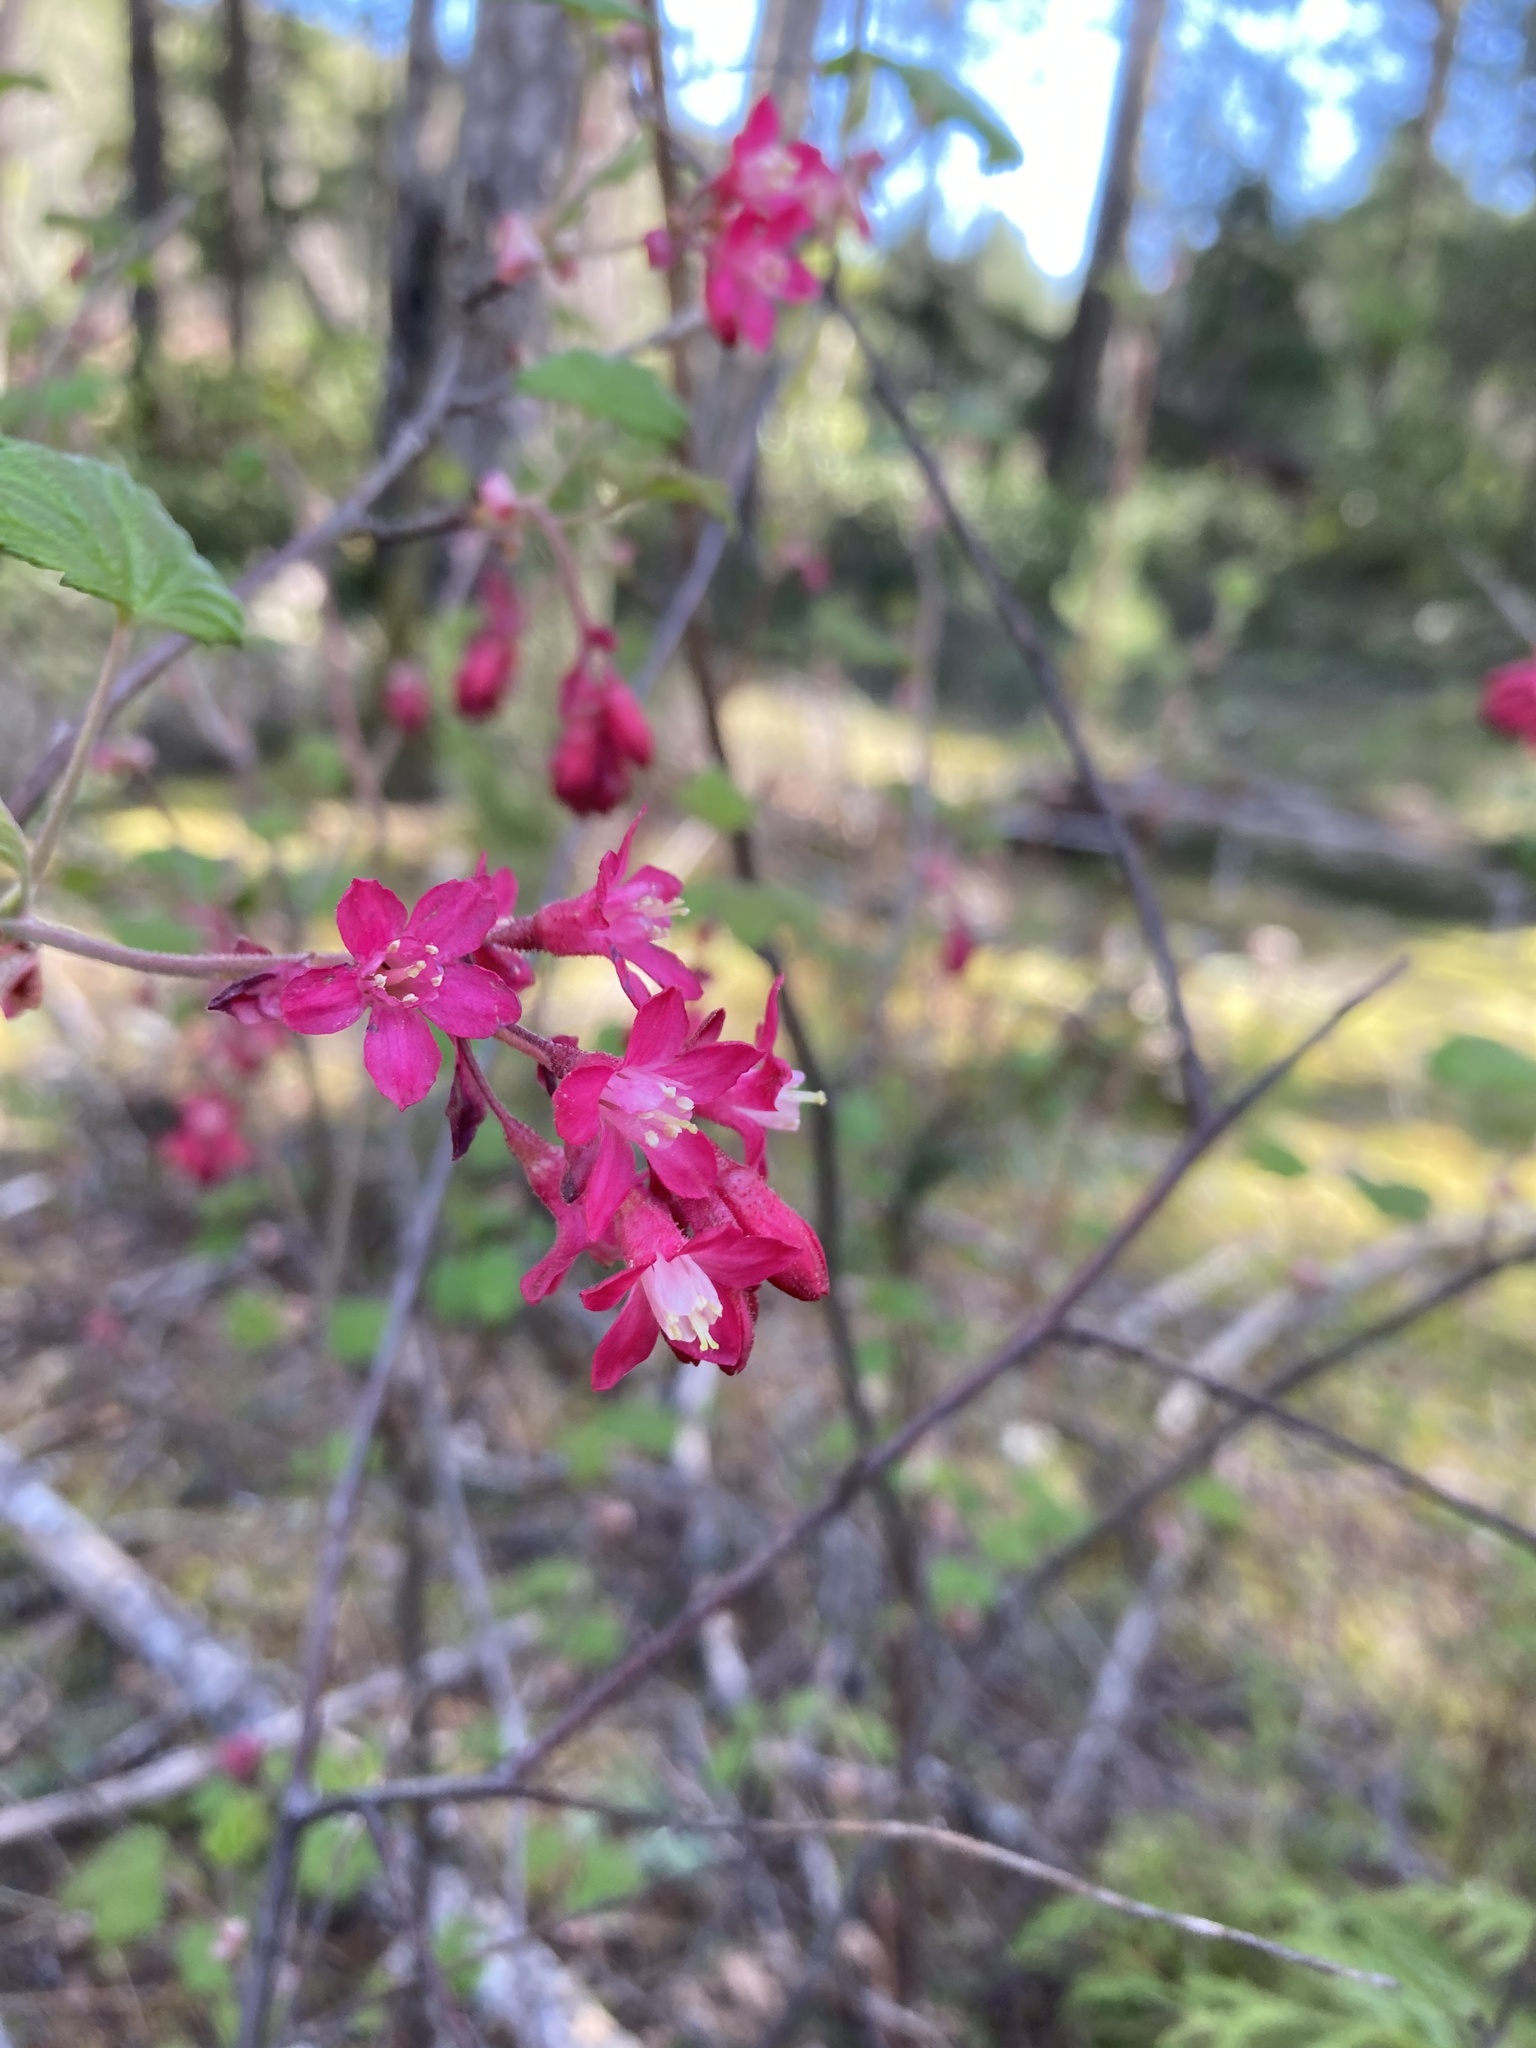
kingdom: Plantae
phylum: Tracheophyta
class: Magnoliopsida
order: Saxifragales
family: Grossulariaceae
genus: Ribes
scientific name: Ribes sanguineum
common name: Flowering currant
